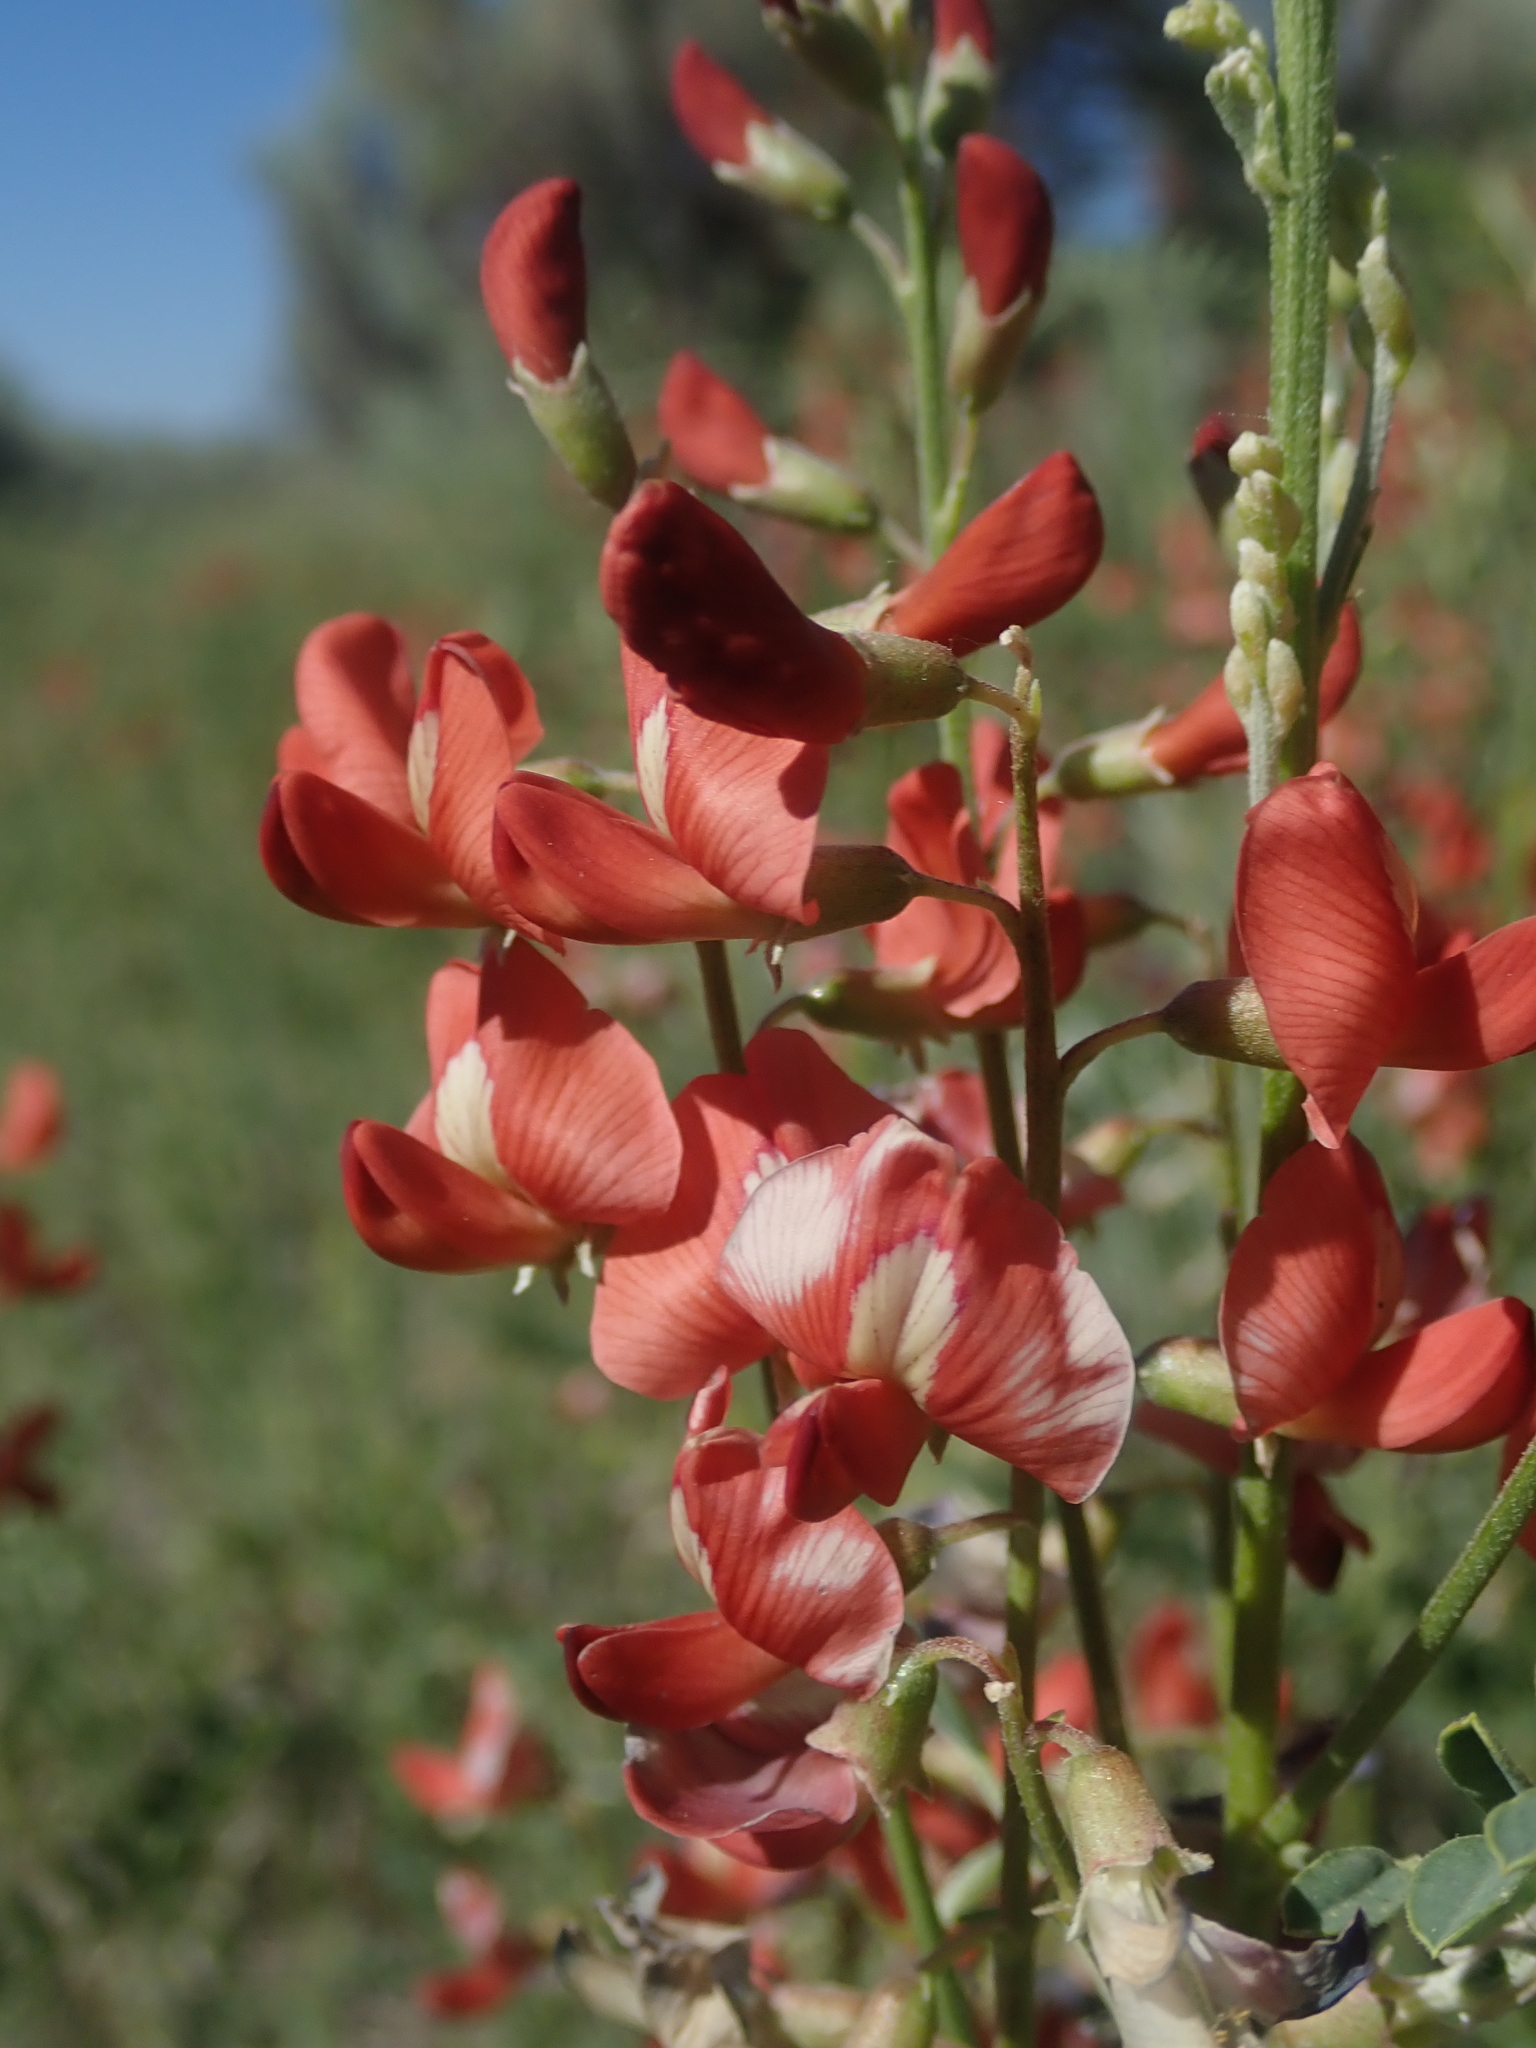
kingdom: Plantae
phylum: Tracheophyta
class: Magnoliopsida
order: Fabales
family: Fabaceae
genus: Sphaerophysa
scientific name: Sphaerophysa salsula
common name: Alkali swainsonpea
